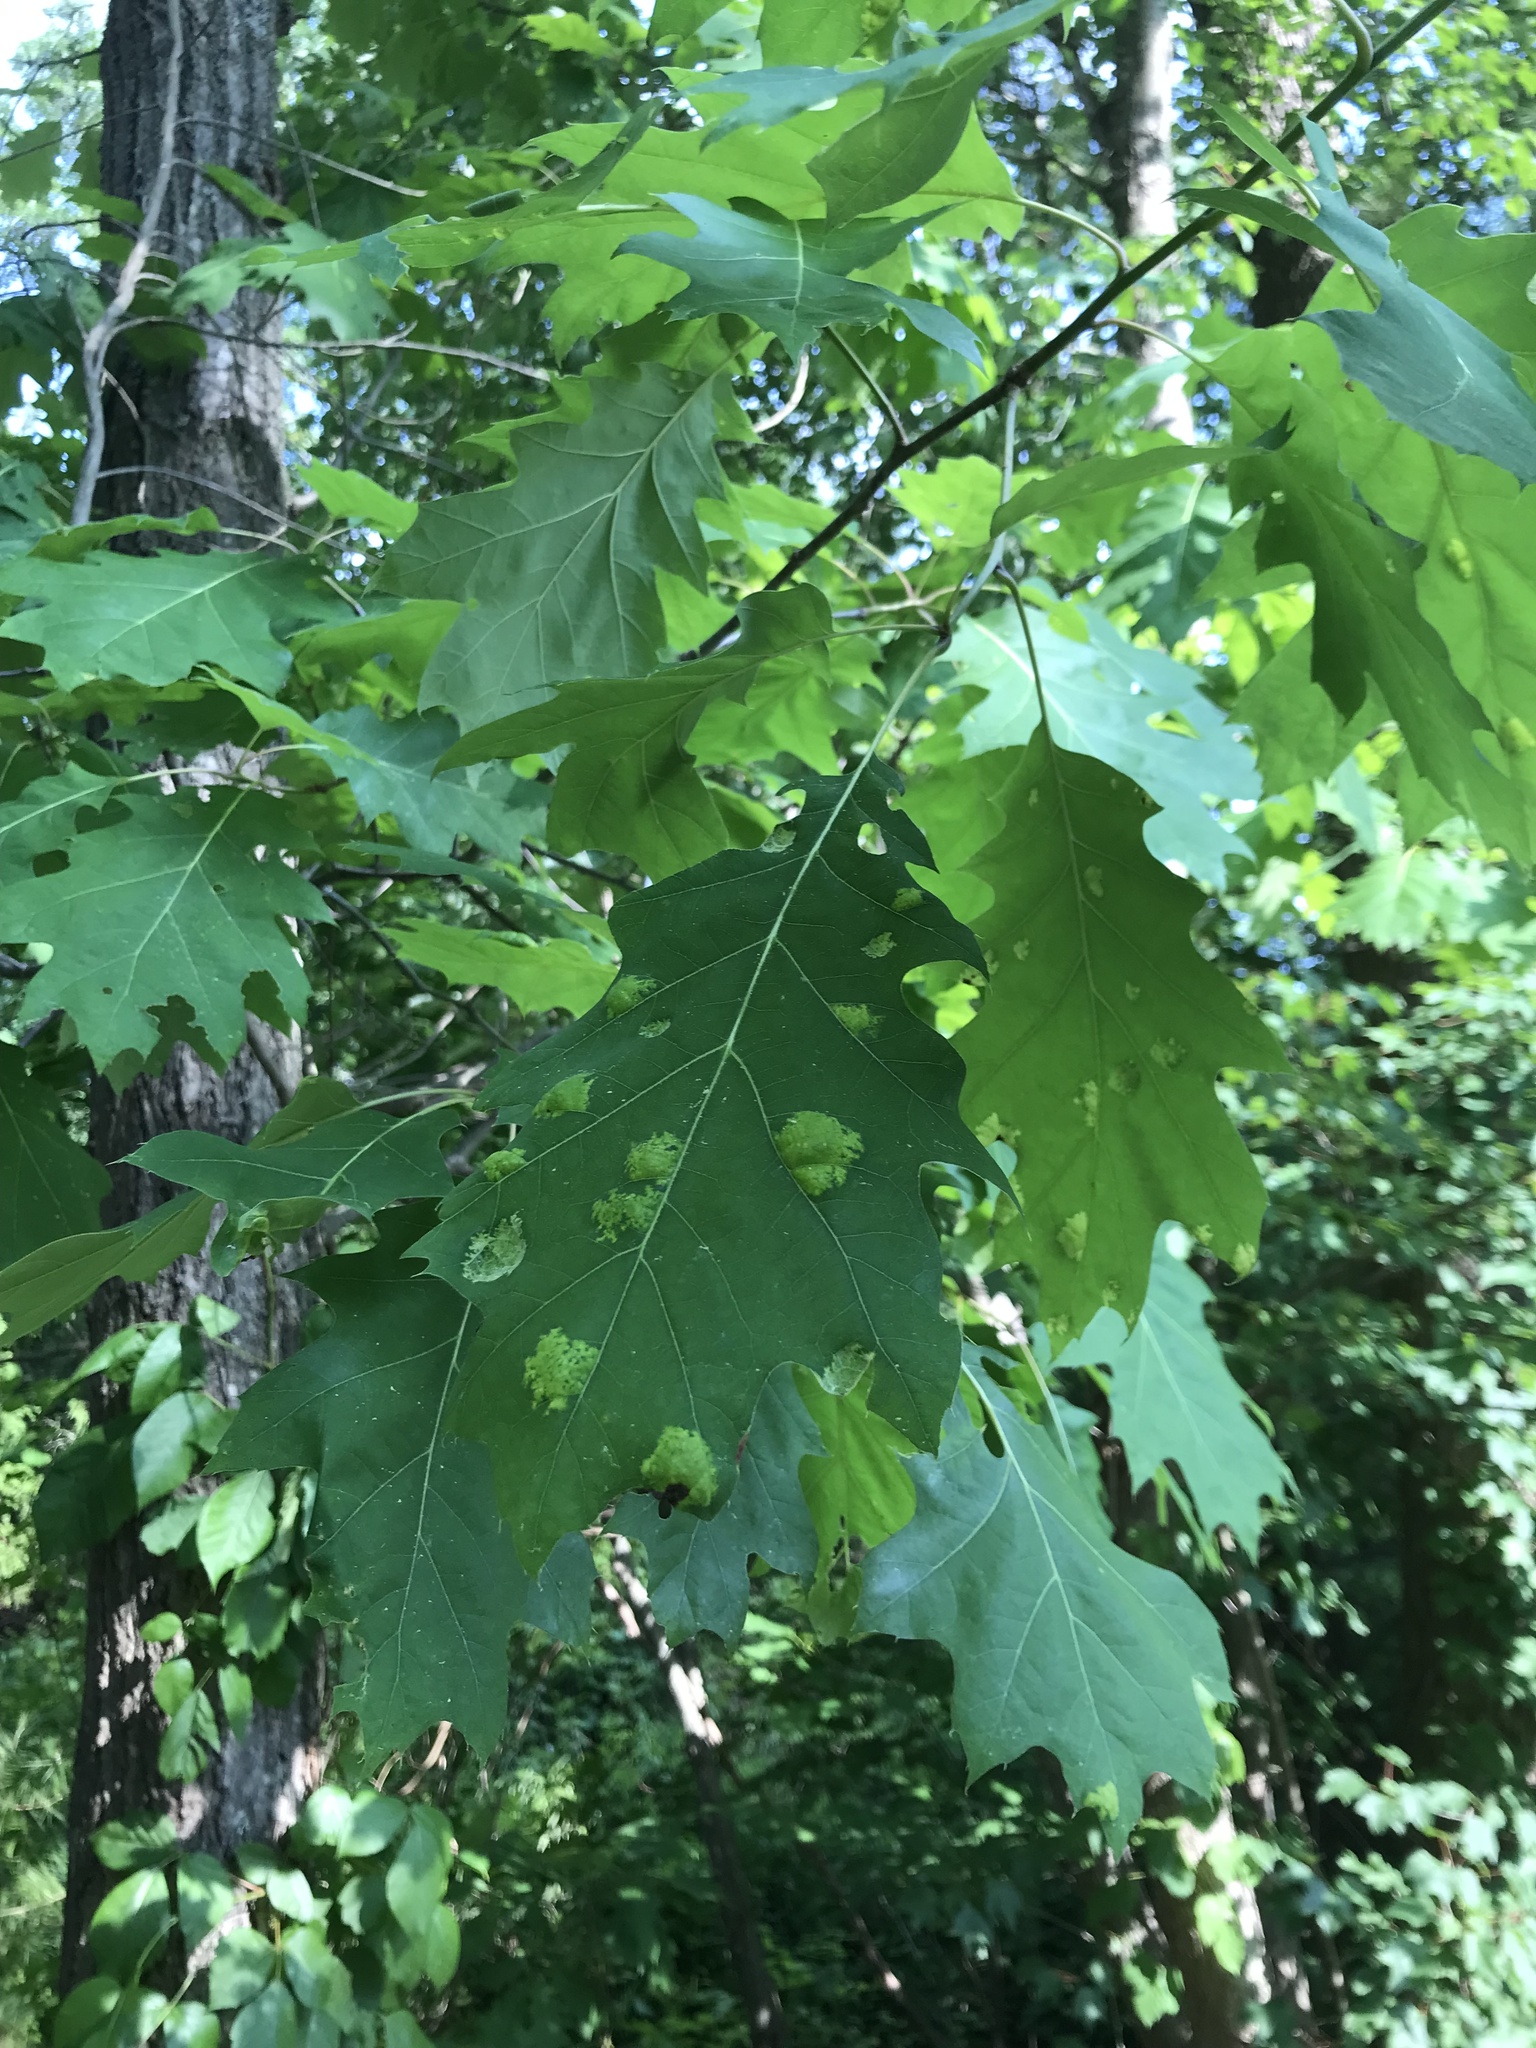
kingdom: Plantae
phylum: Tracheophyta
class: Magnoliopsida
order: Fagales
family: Fagaceae
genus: Quercus
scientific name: Quercus rubra
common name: Red oak
